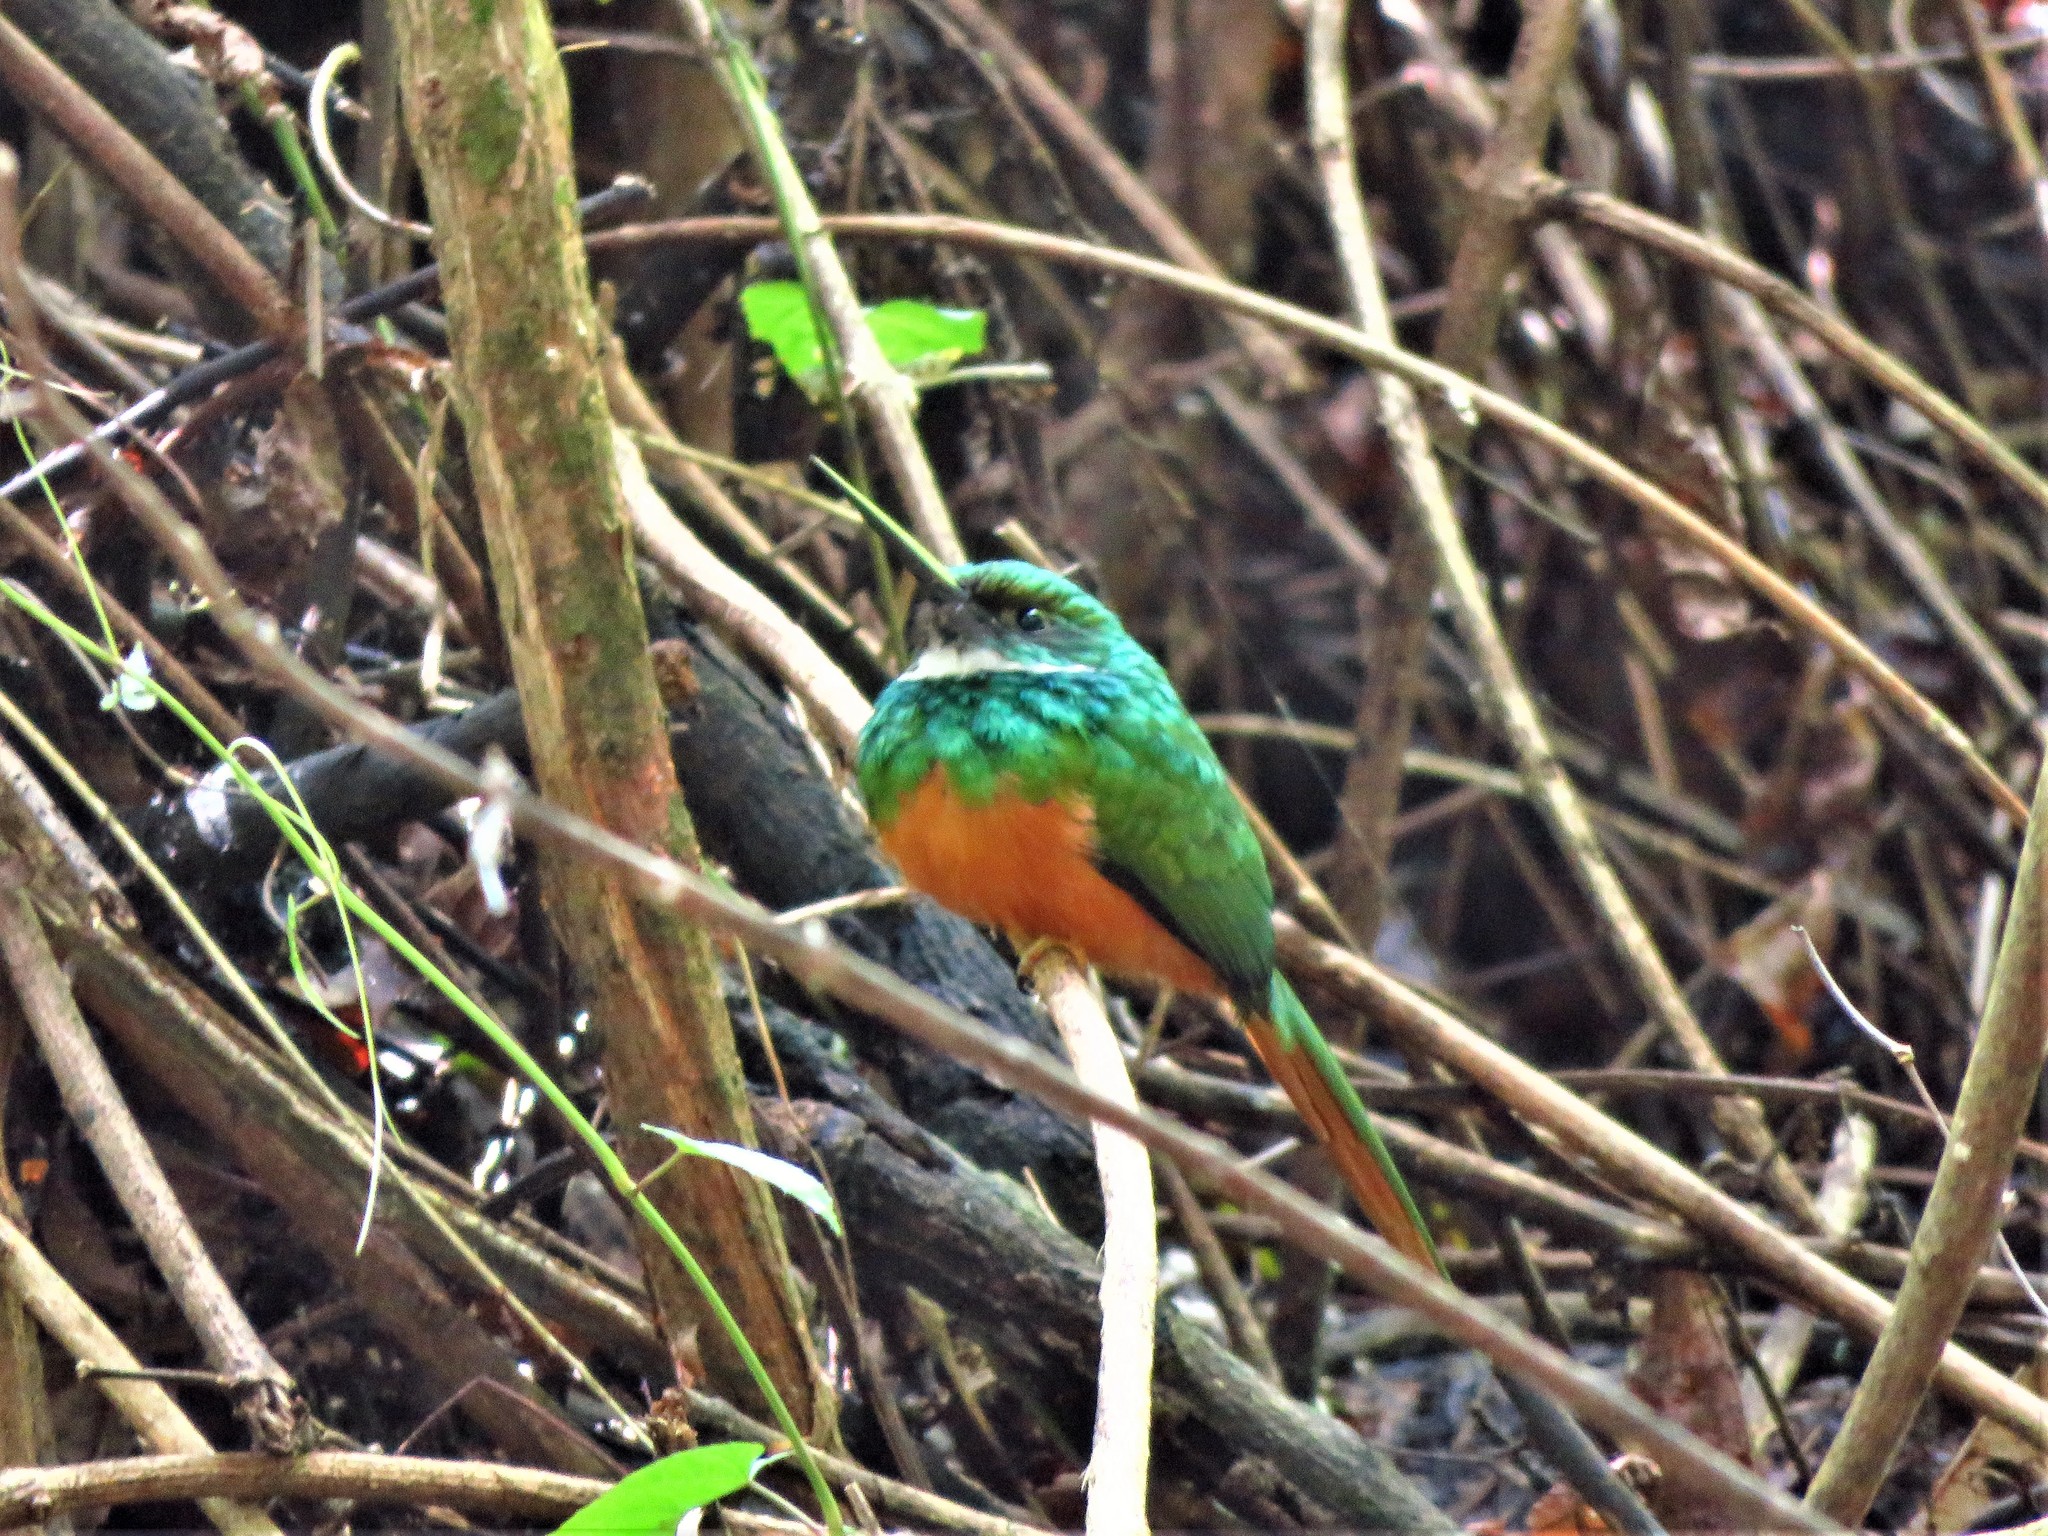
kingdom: Animalia
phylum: Chordata
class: Aves
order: Piciformes
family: Galbulidae
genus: Galbula
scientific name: Galbula ruficauda
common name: Rufous-tailed jacamar
